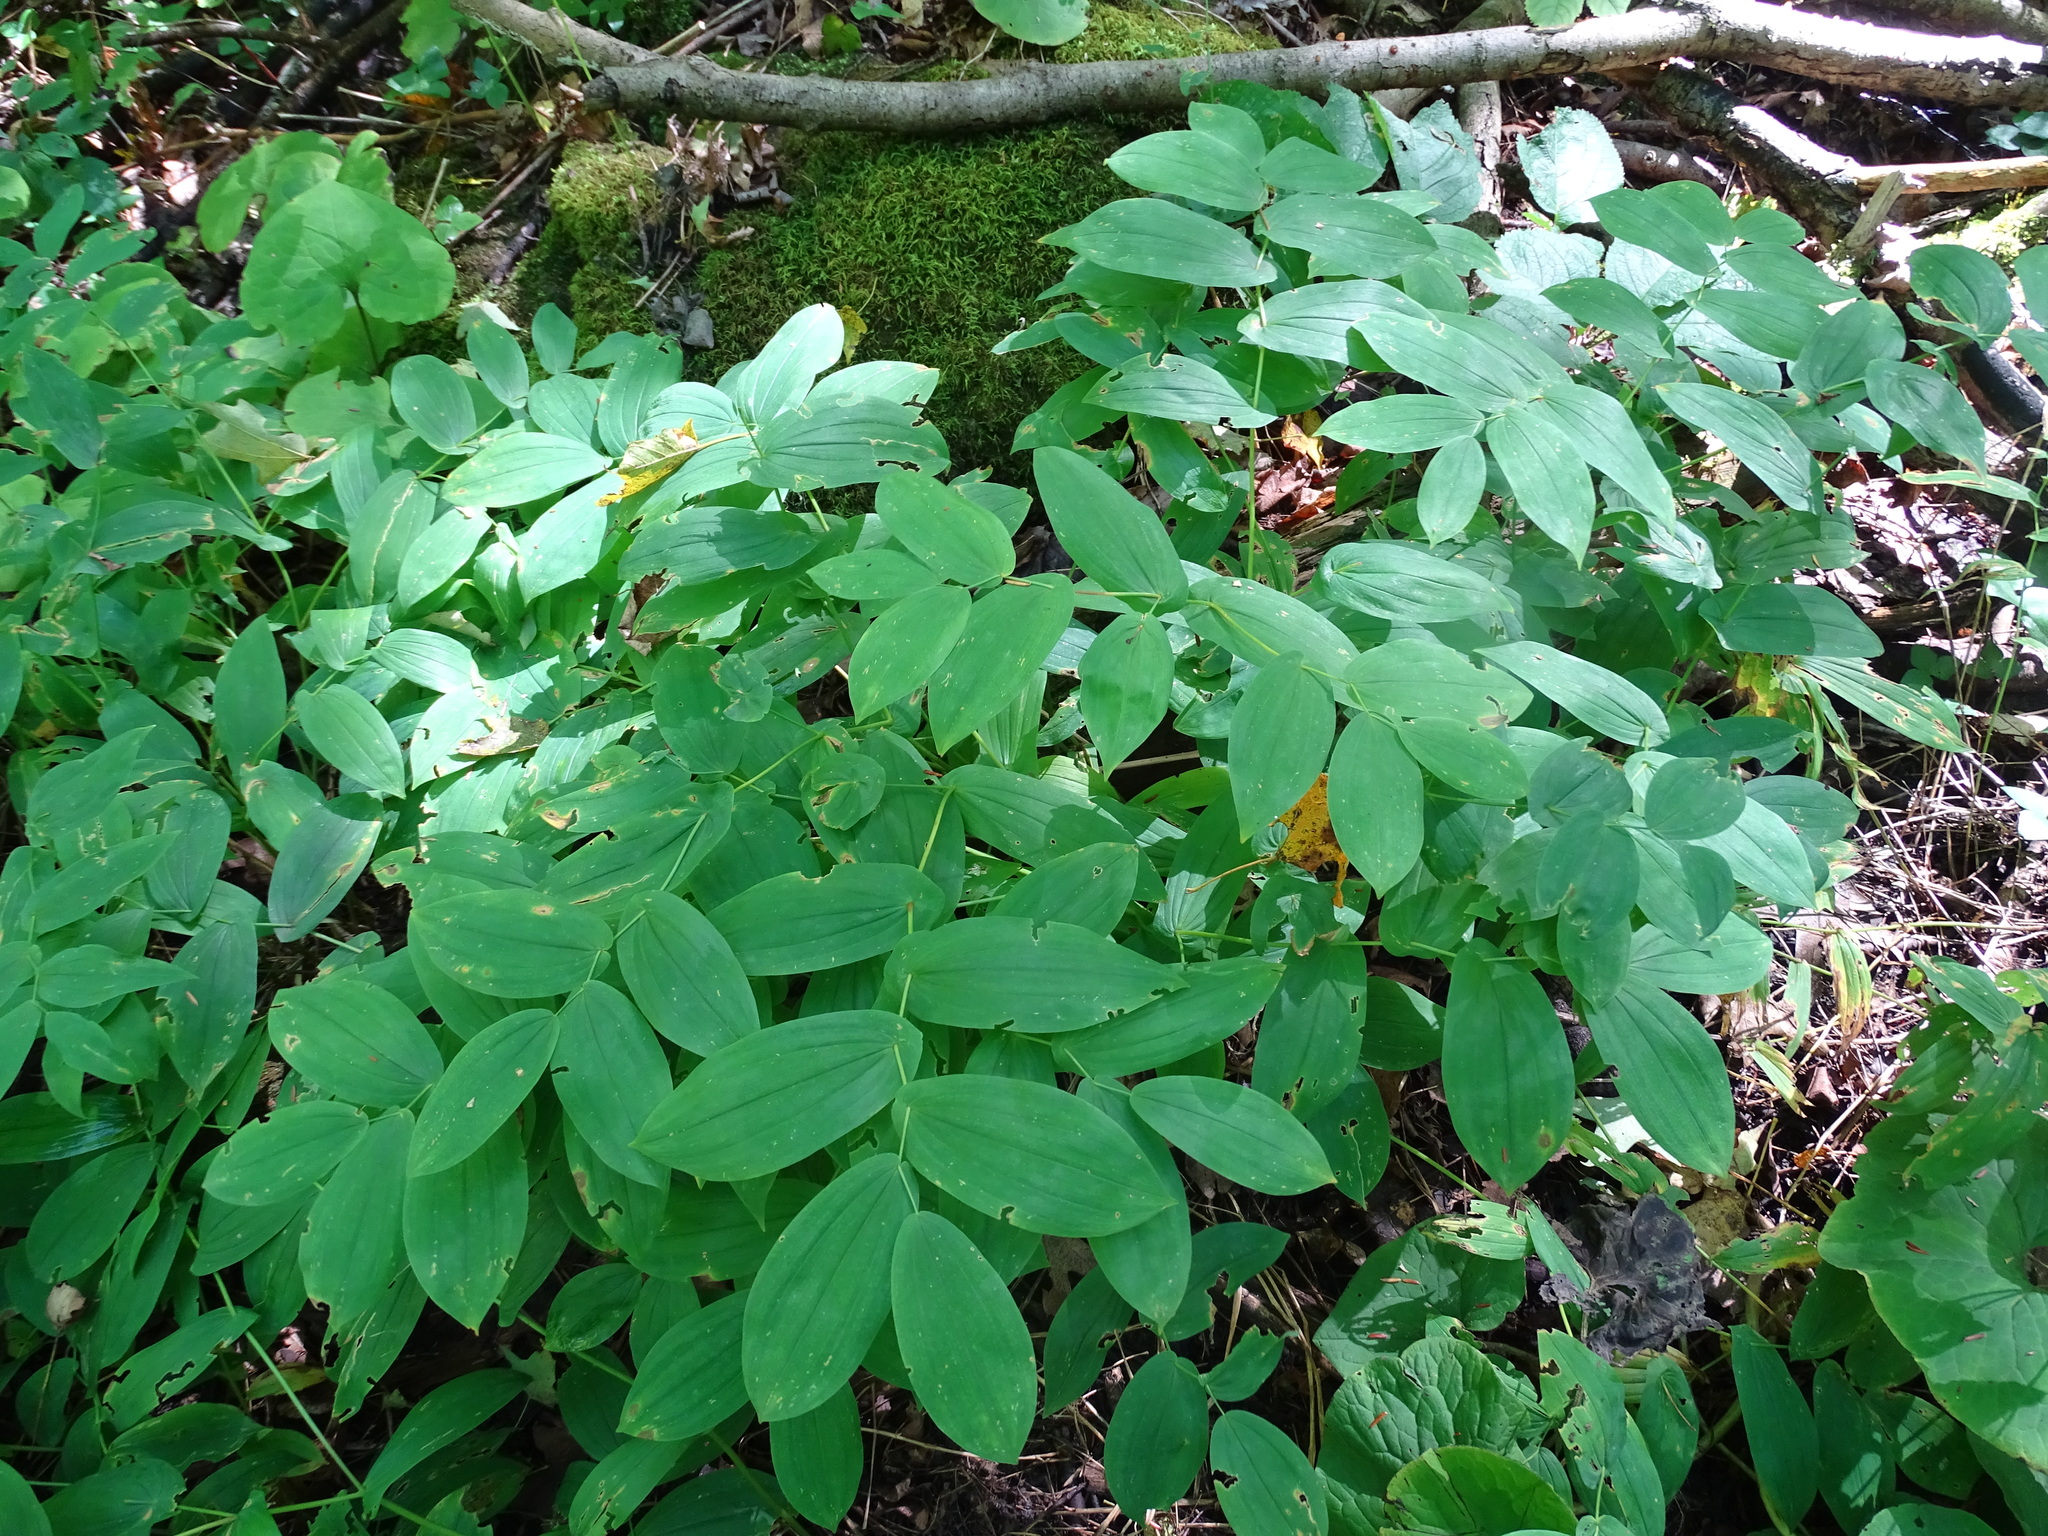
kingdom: Plantae
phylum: Tracheophyta
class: Liliopsida
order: Liliales
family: Colchicaceae
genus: Uvularia
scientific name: Uvularia grandiflora
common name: Bellwort
